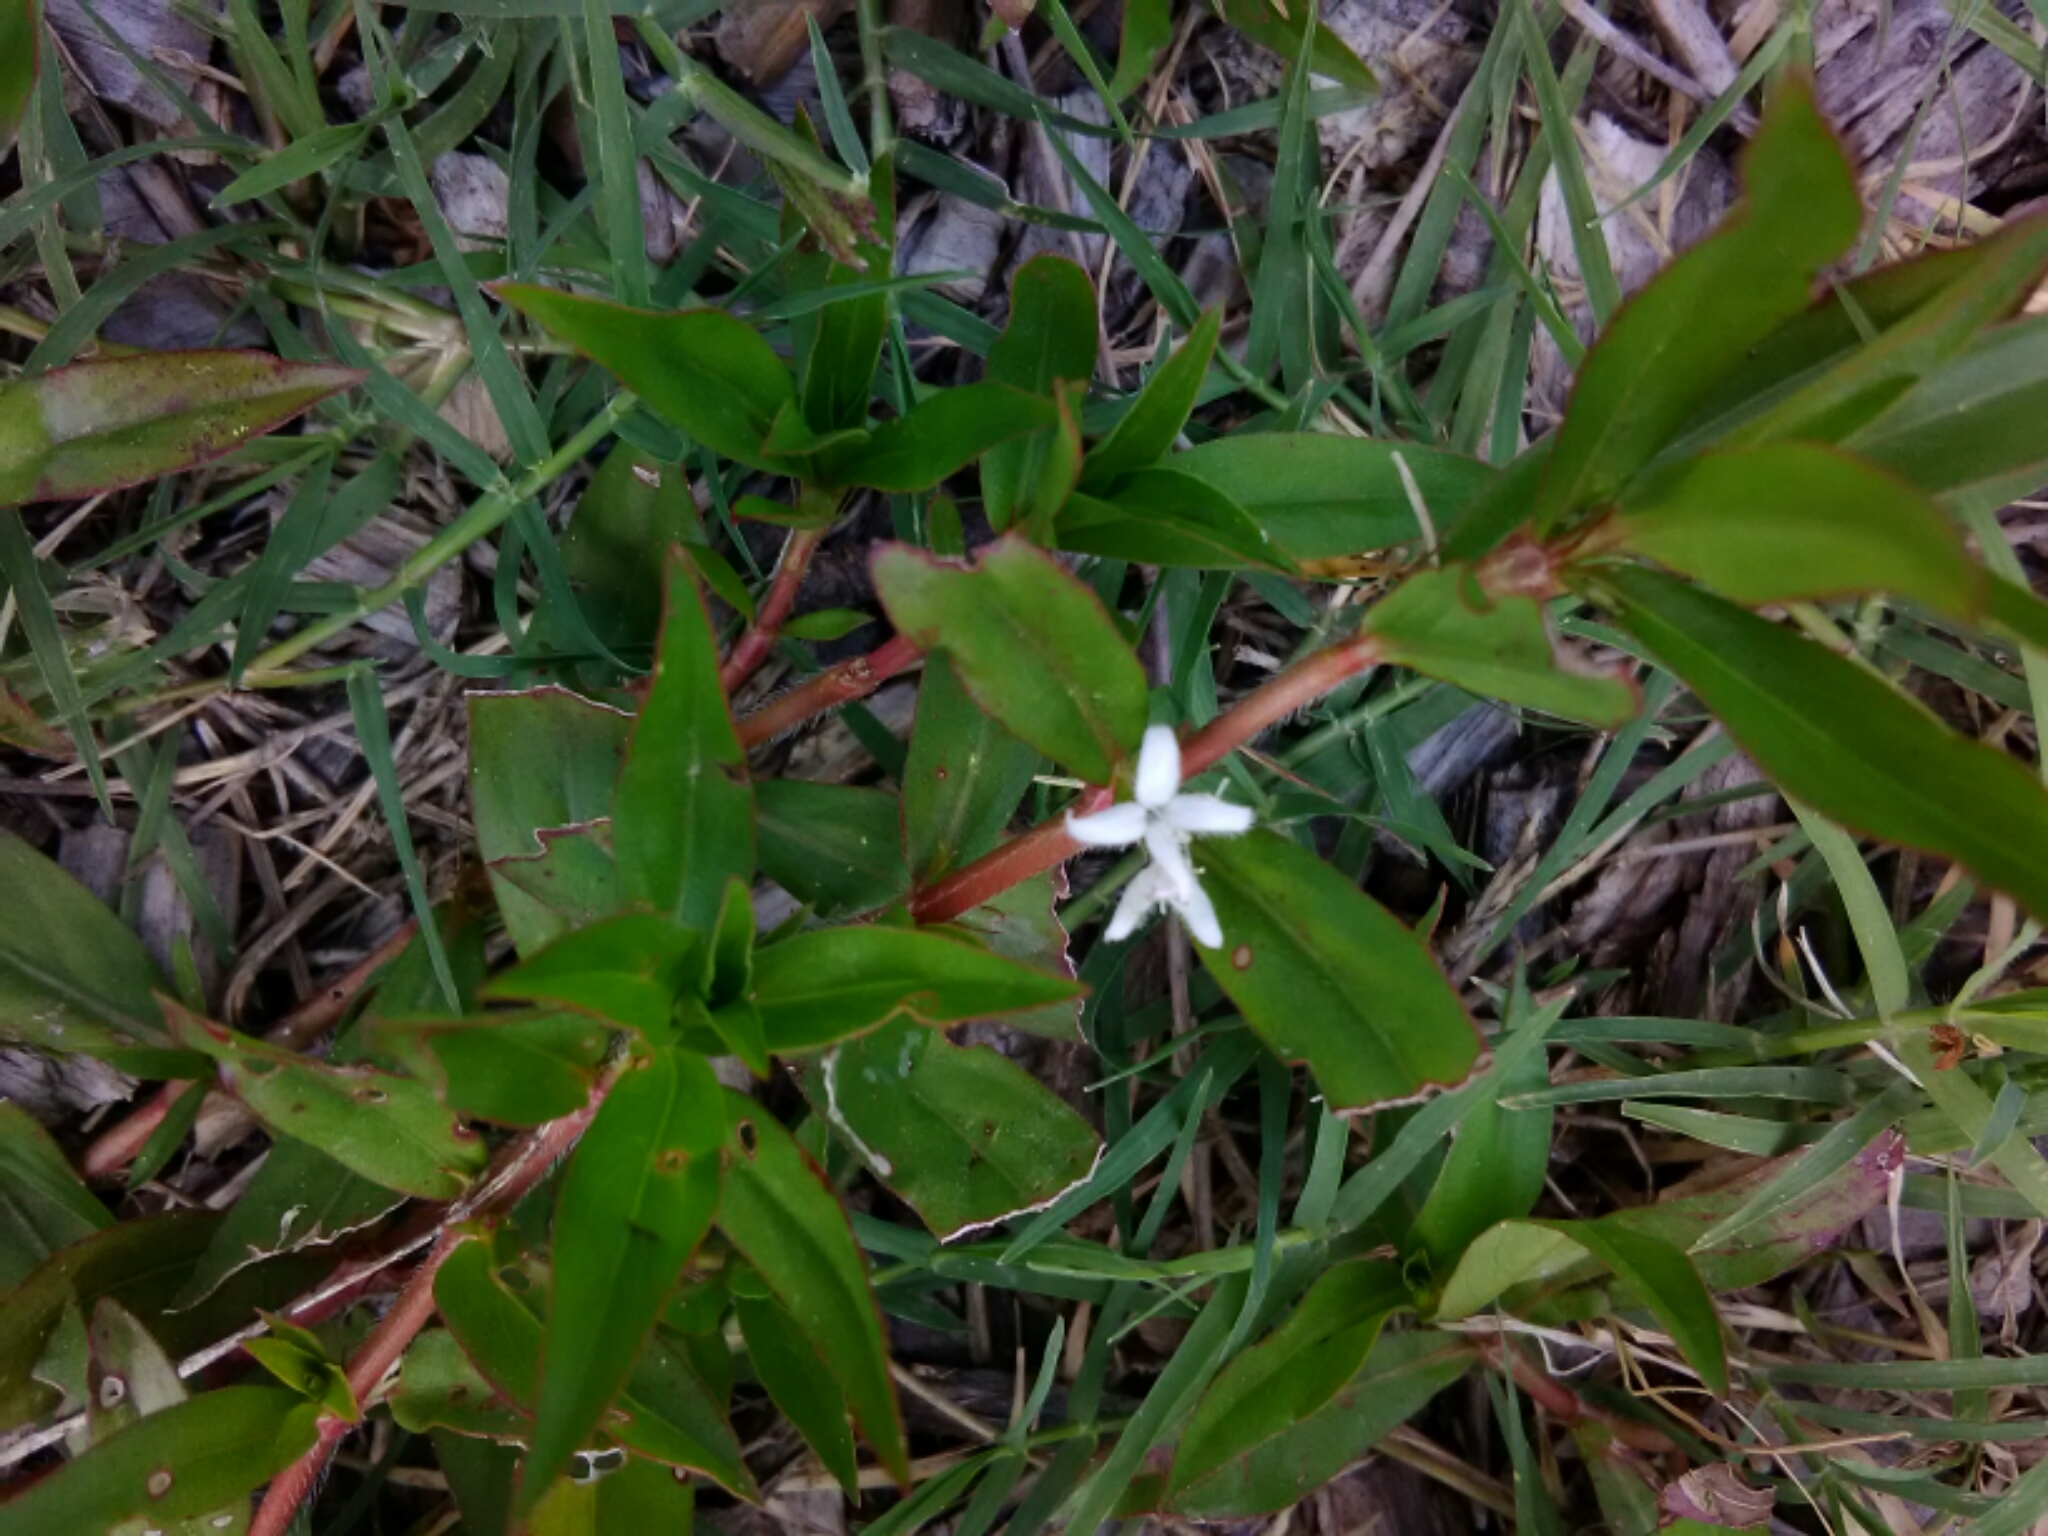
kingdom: Plantae
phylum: Tracheophyta
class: Magnoliopsida
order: Gentianales
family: Rubiaceae
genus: Diodia
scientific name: Diodia virginiana
